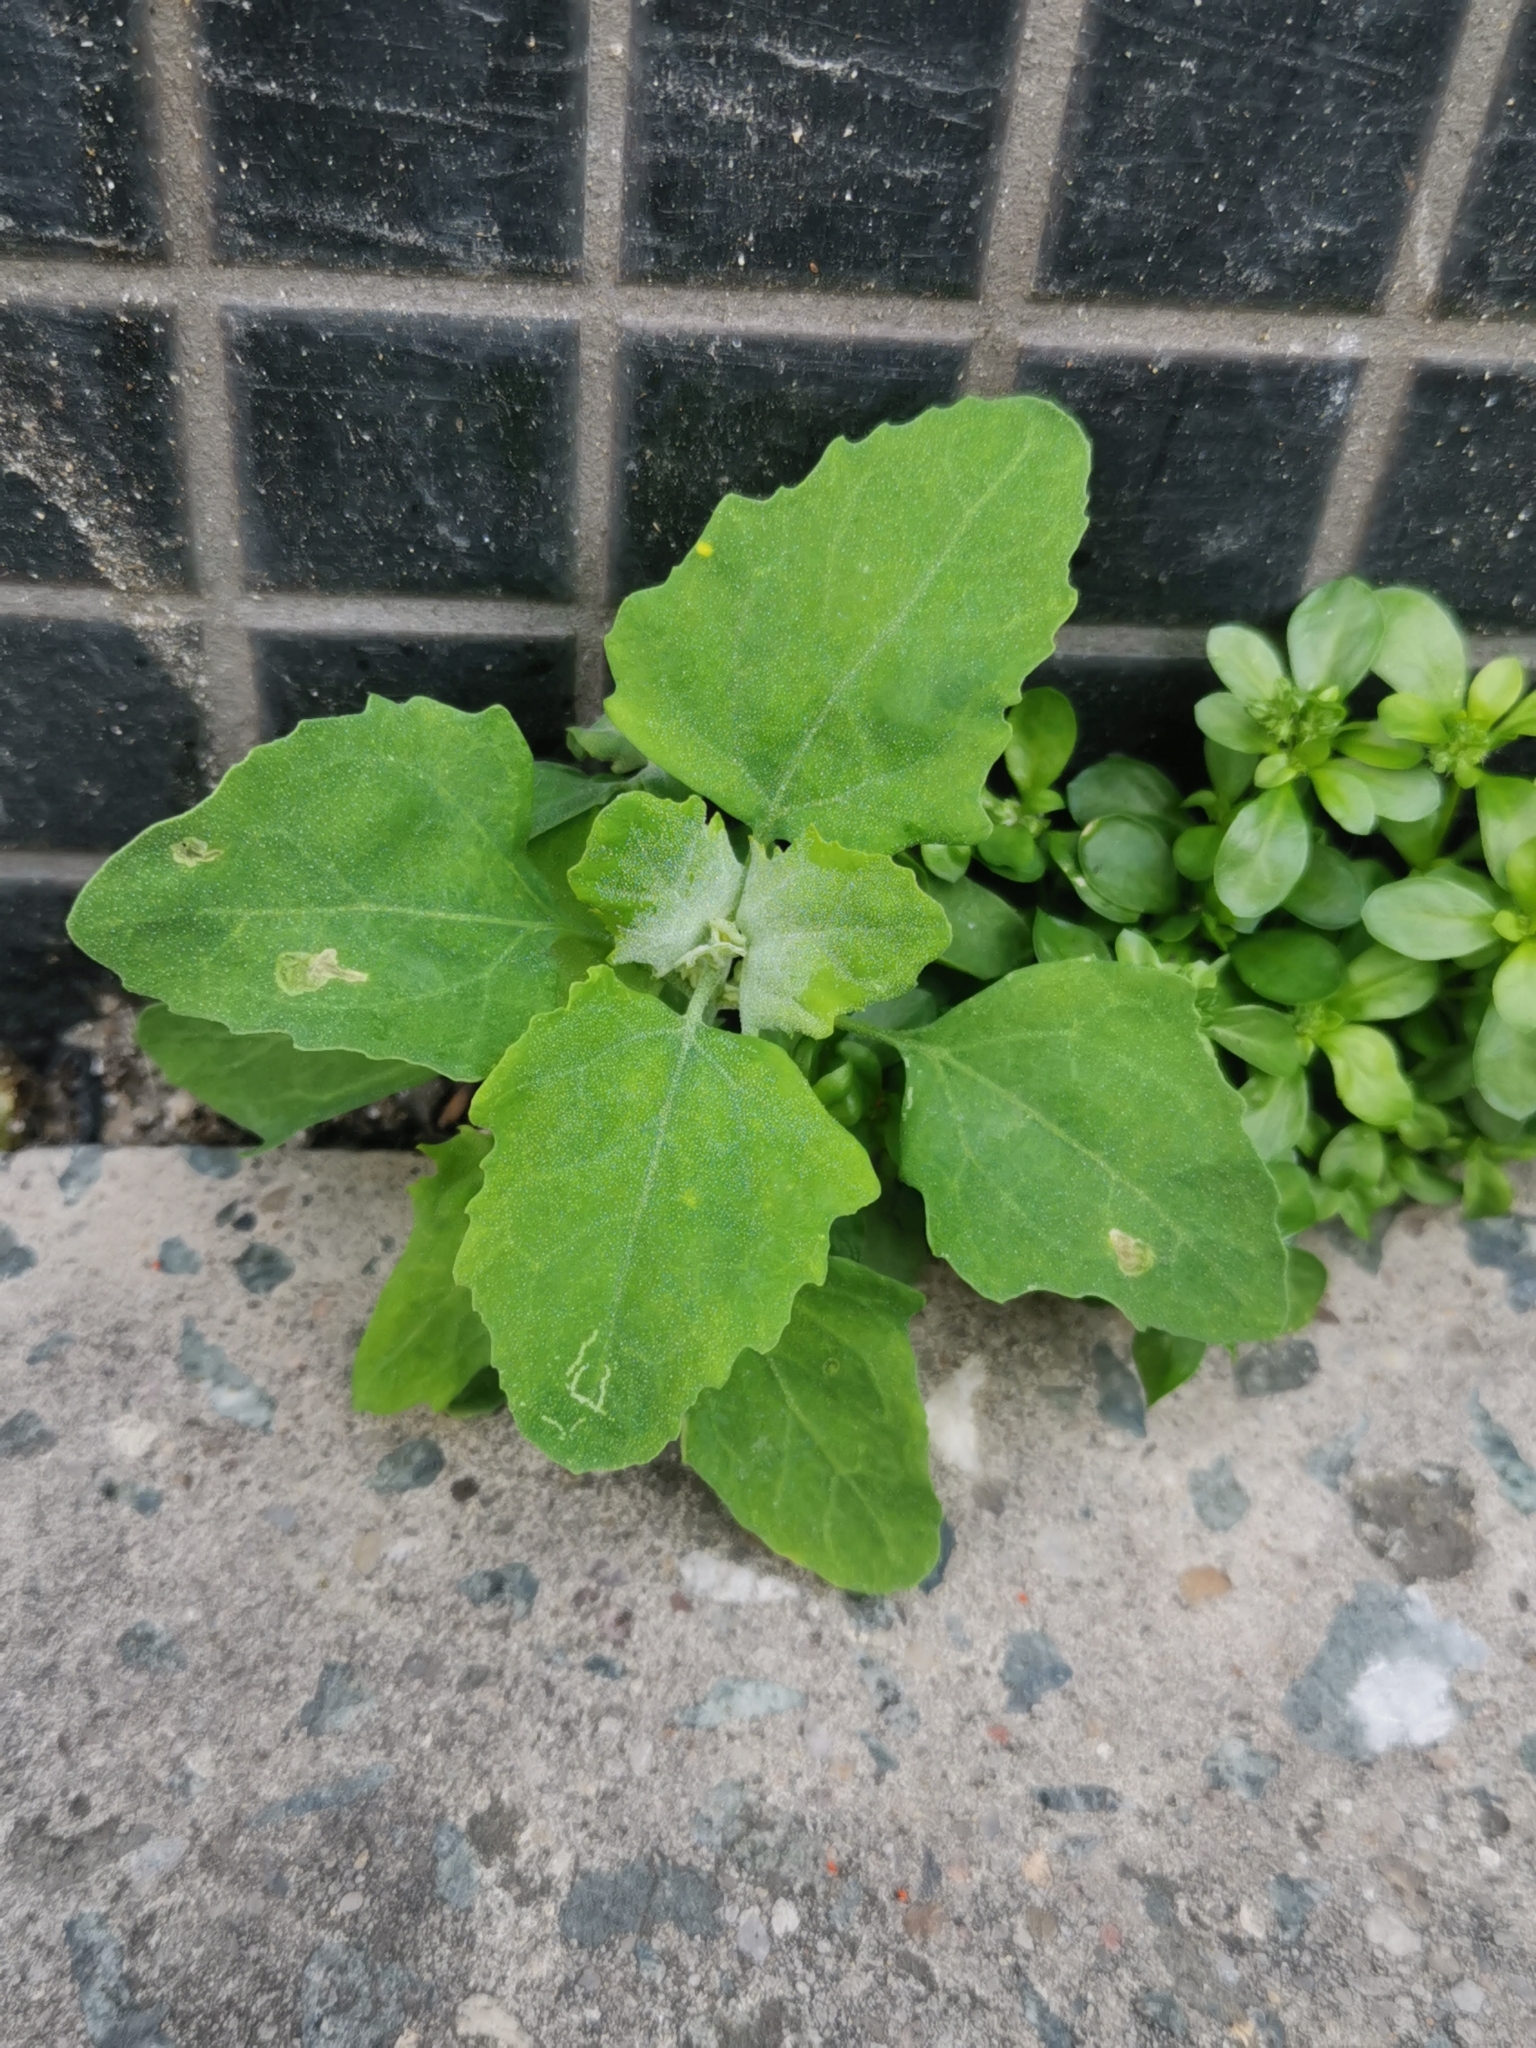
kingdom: Plantae
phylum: Tracheophyta
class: Magnoliopsida
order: Caryophyllales
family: Amaranthaceae
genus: Chenopodium
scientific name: Chenopodium album
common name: Fat-hen
